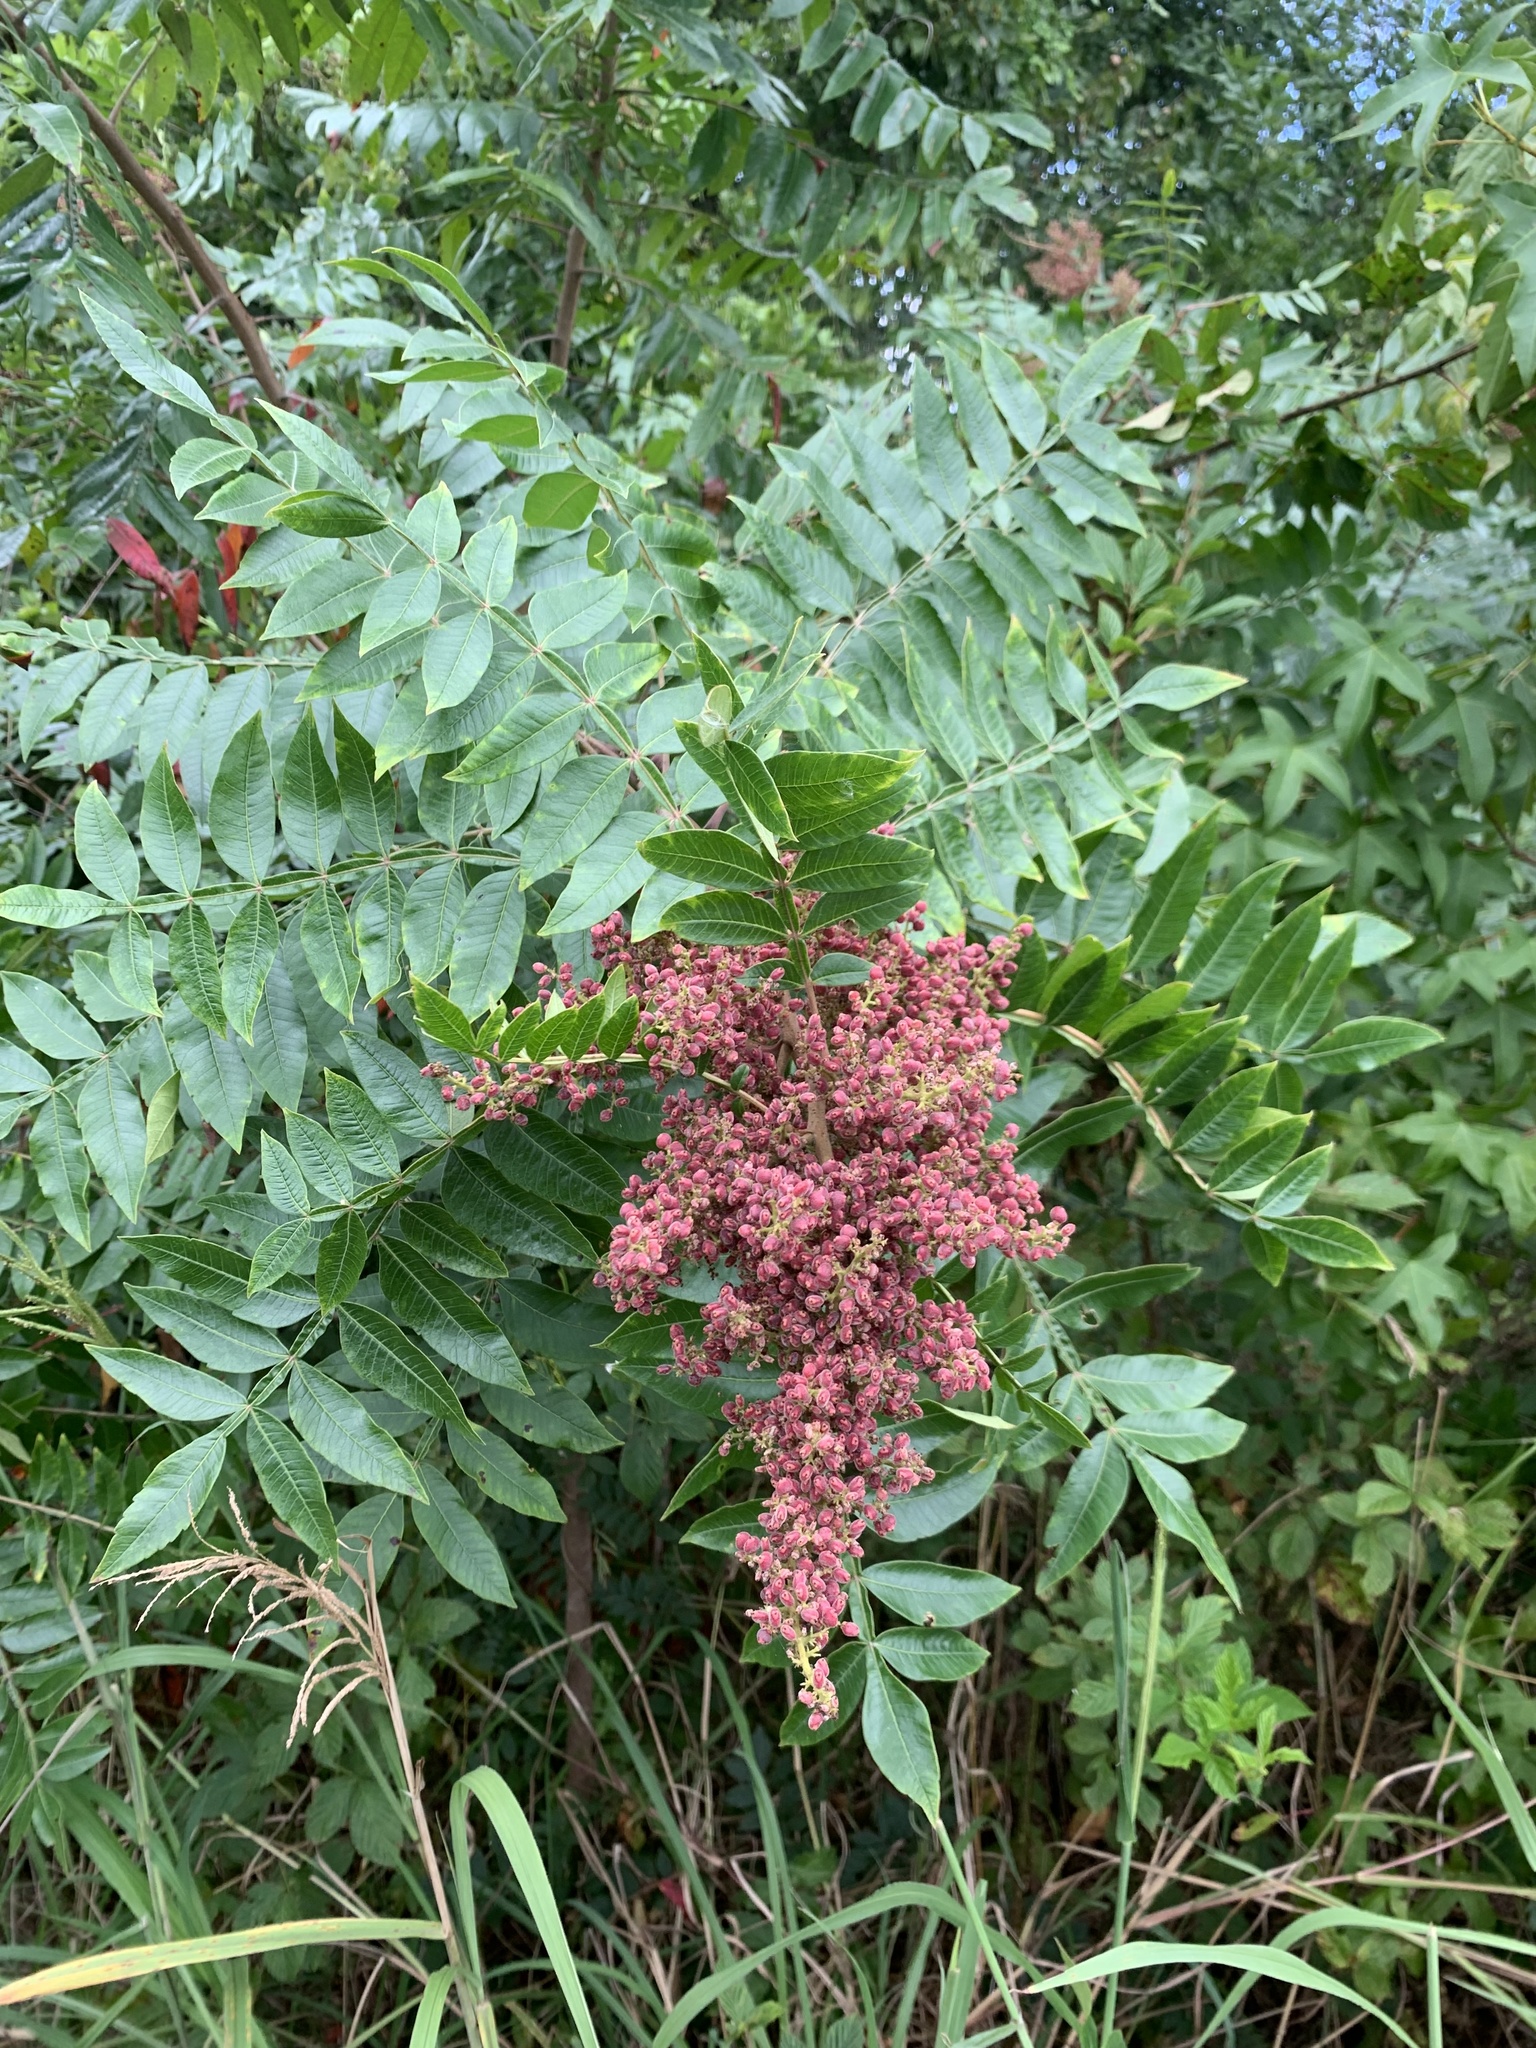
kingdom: Plantae
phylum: Tracheophyta
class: Magnoliopsida
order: Sapindales
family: Anacardiaceae
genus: Rhus
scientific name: Rhus copallina
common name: Shining sumac
